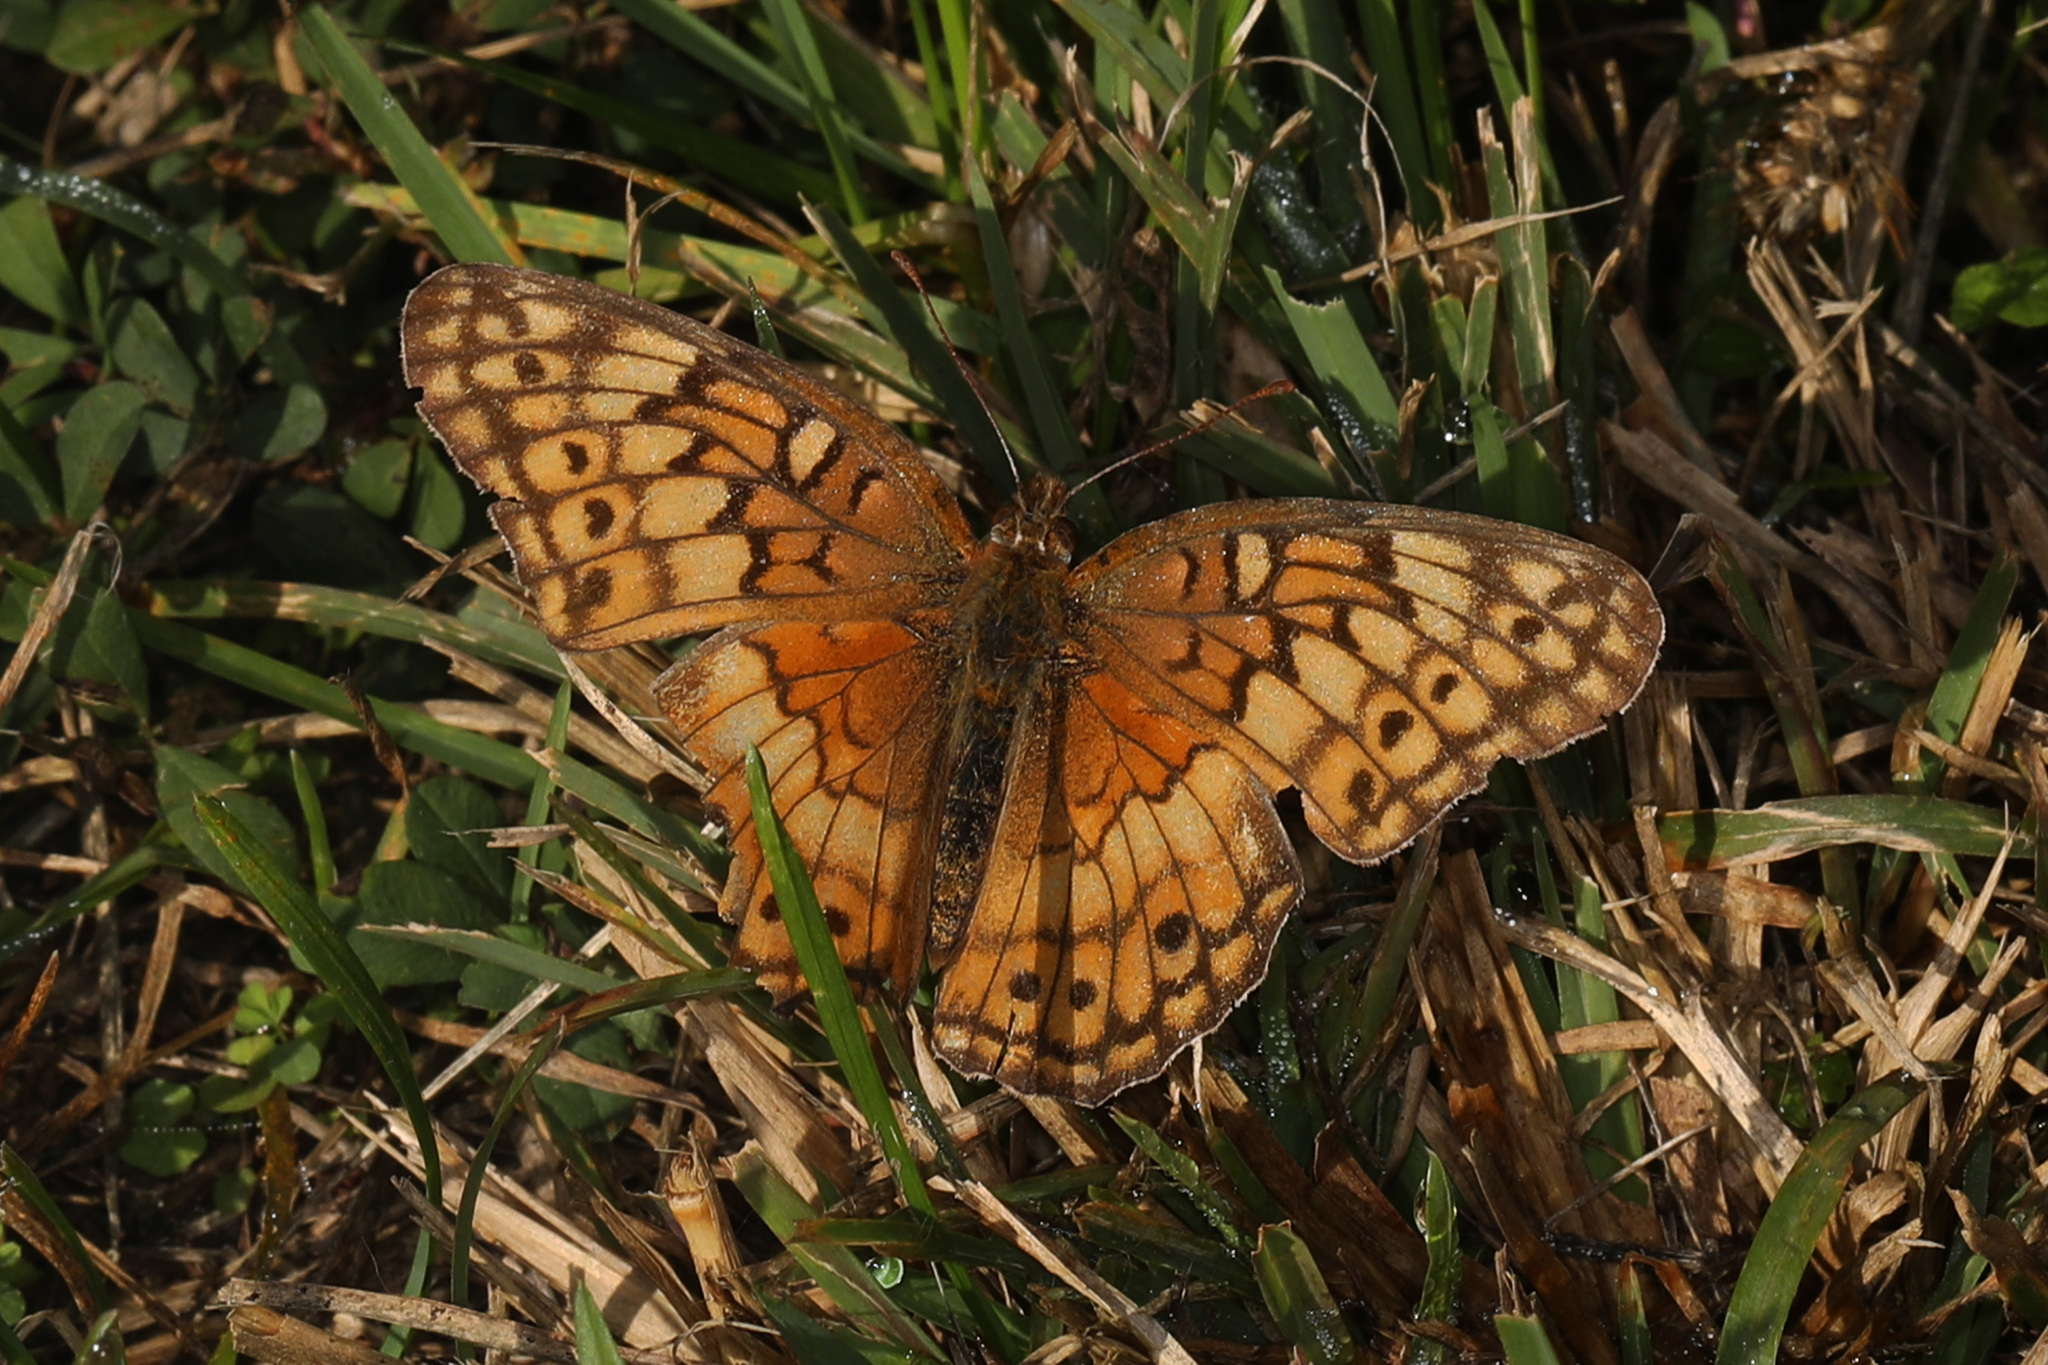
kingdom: Animalia
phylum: Arthropoda
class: Insecta
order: Lepidoptera
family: Nymphalidae
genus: Euptoieta
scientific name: Euptoieta claudia
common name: Variegated fritillary
